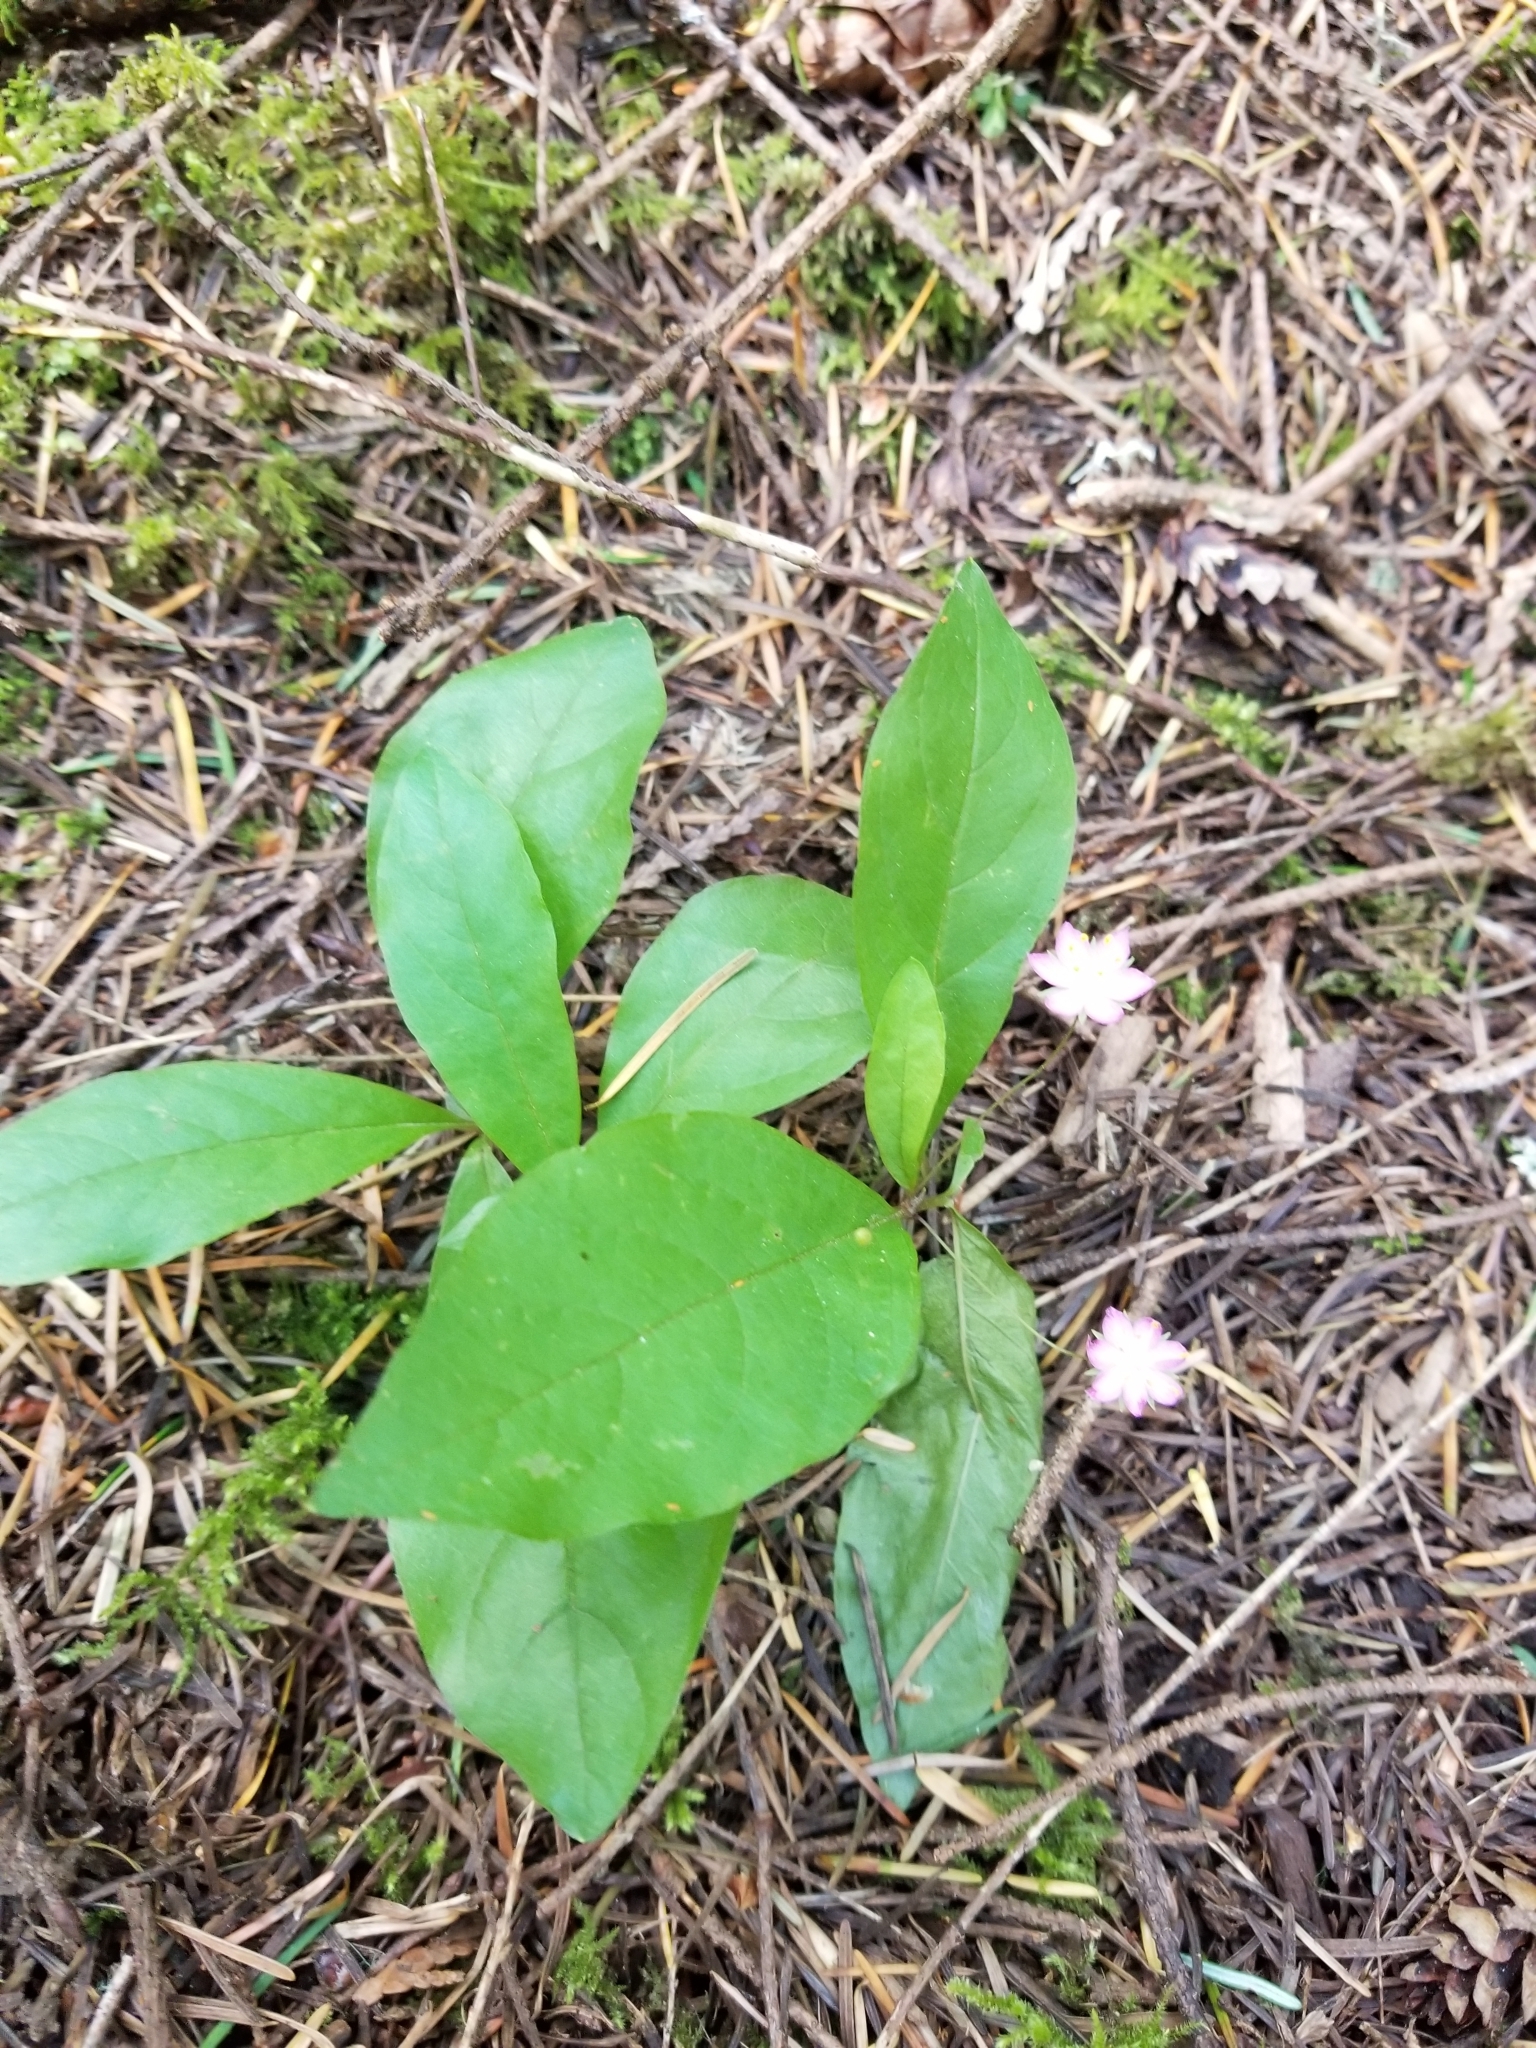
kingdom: Plantae
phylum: Tracheophyta
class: Magnoliopsida
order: Ericales
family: Primulaceae
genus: Lysimachia
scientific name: Lysimachia latifolia
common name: Pacific starflower
